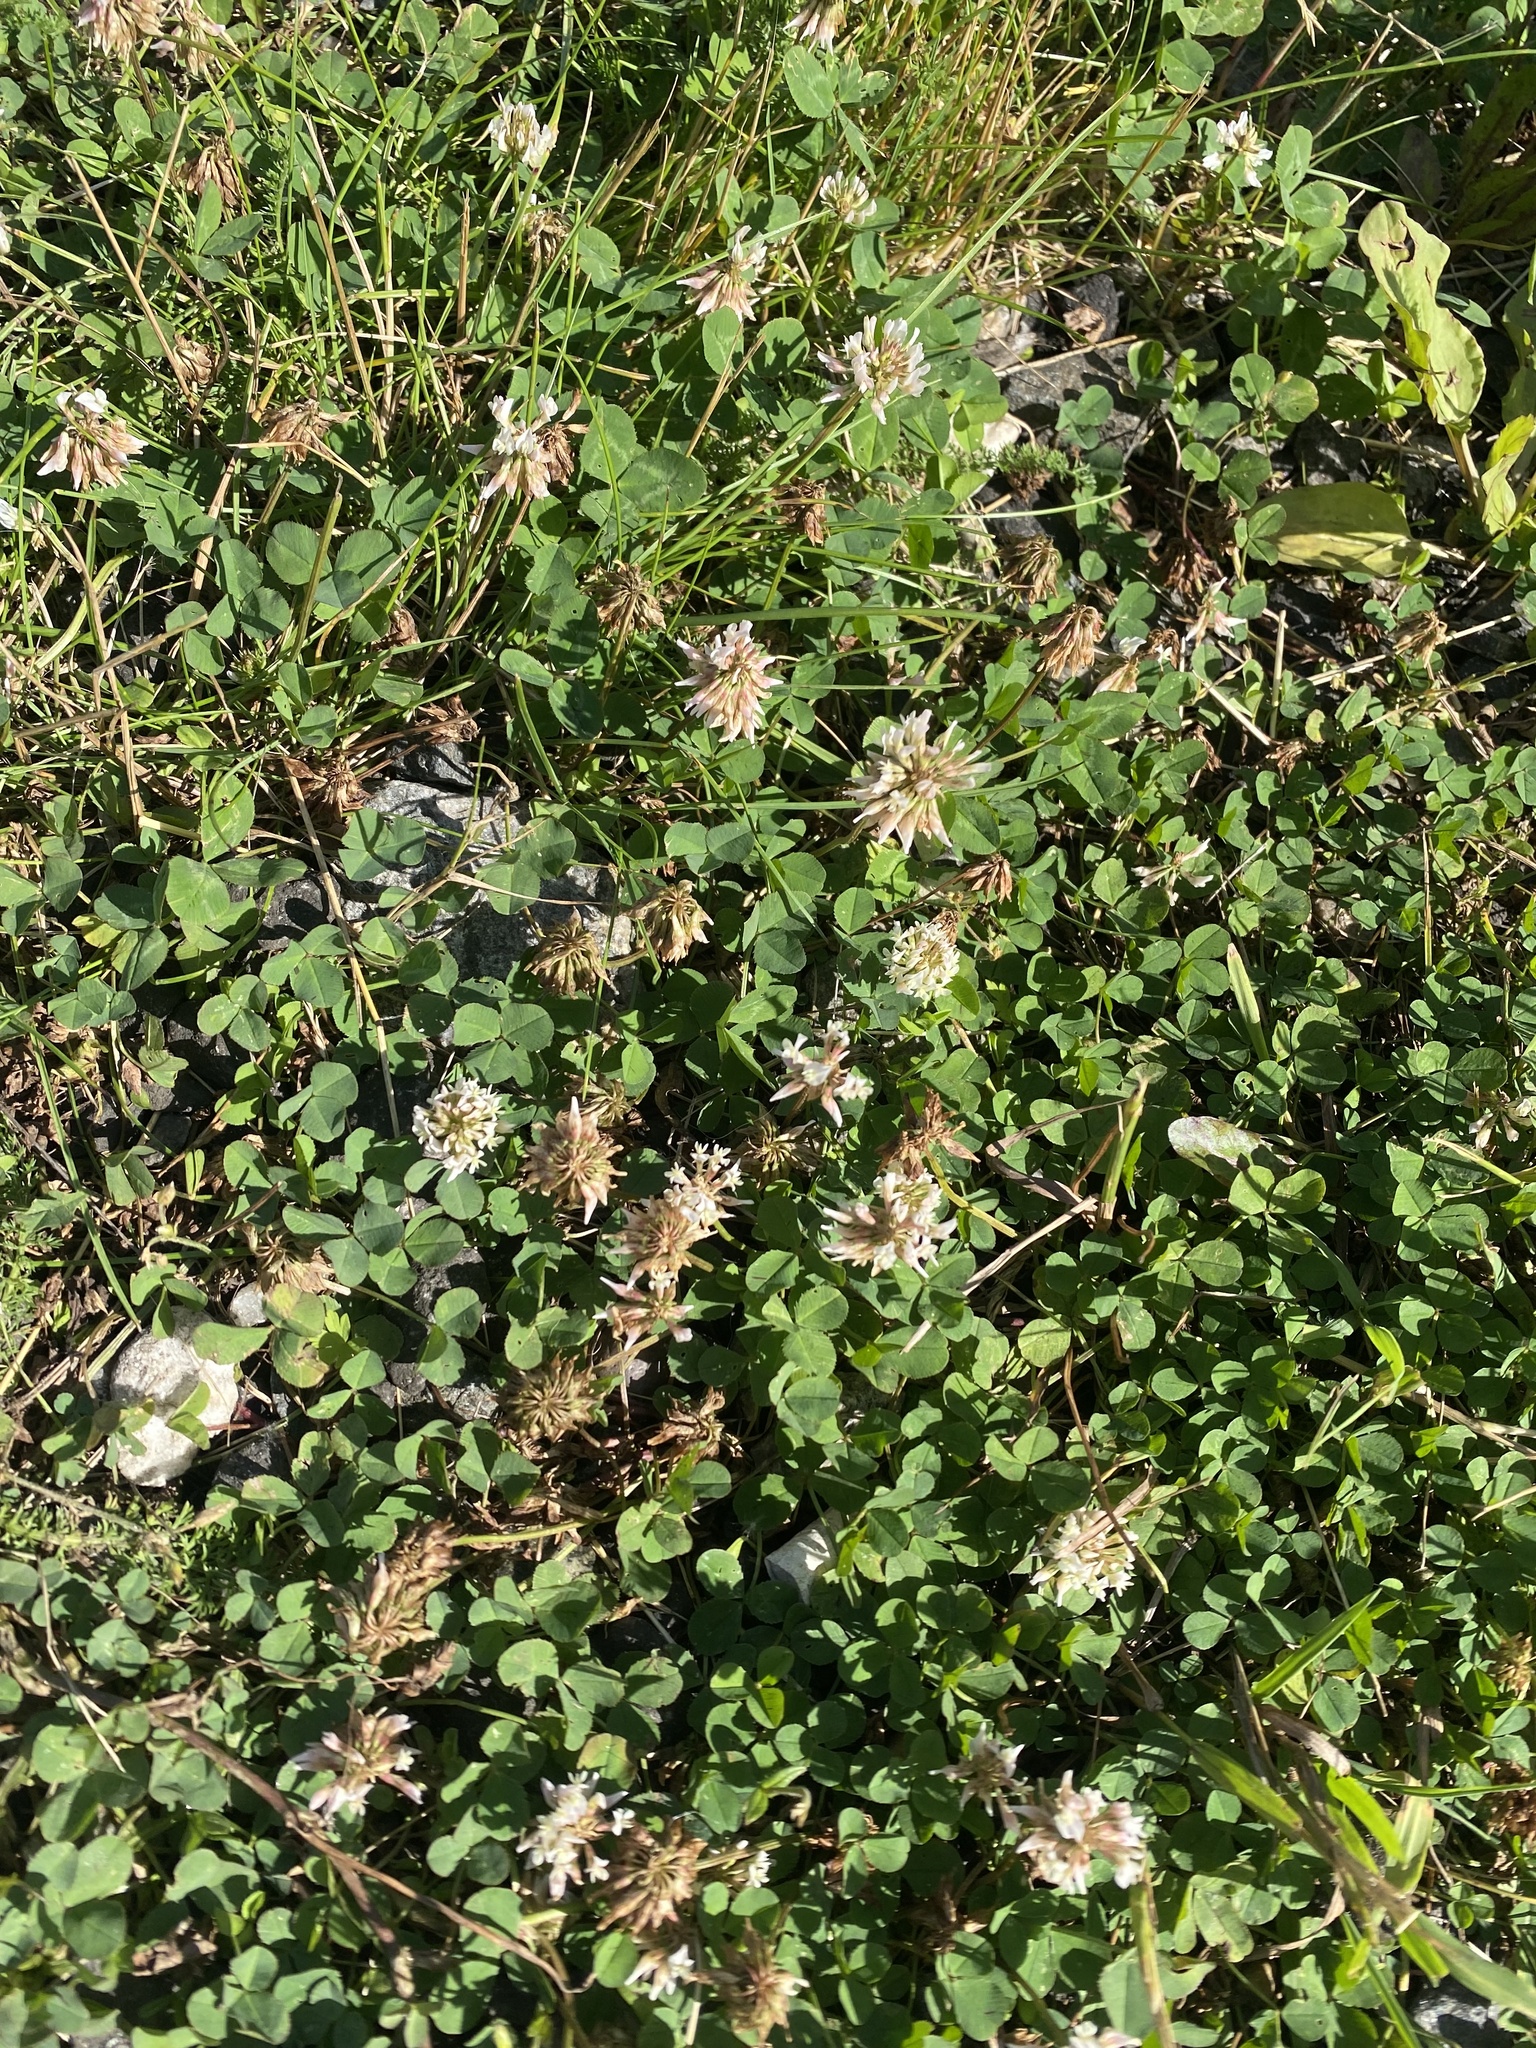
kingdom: Plantae
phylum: Tracheophyta
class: Magnoliopsida
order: Fabales
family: Fabaceae
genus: Trifolium
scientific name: Trifolium repens
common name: White clover
